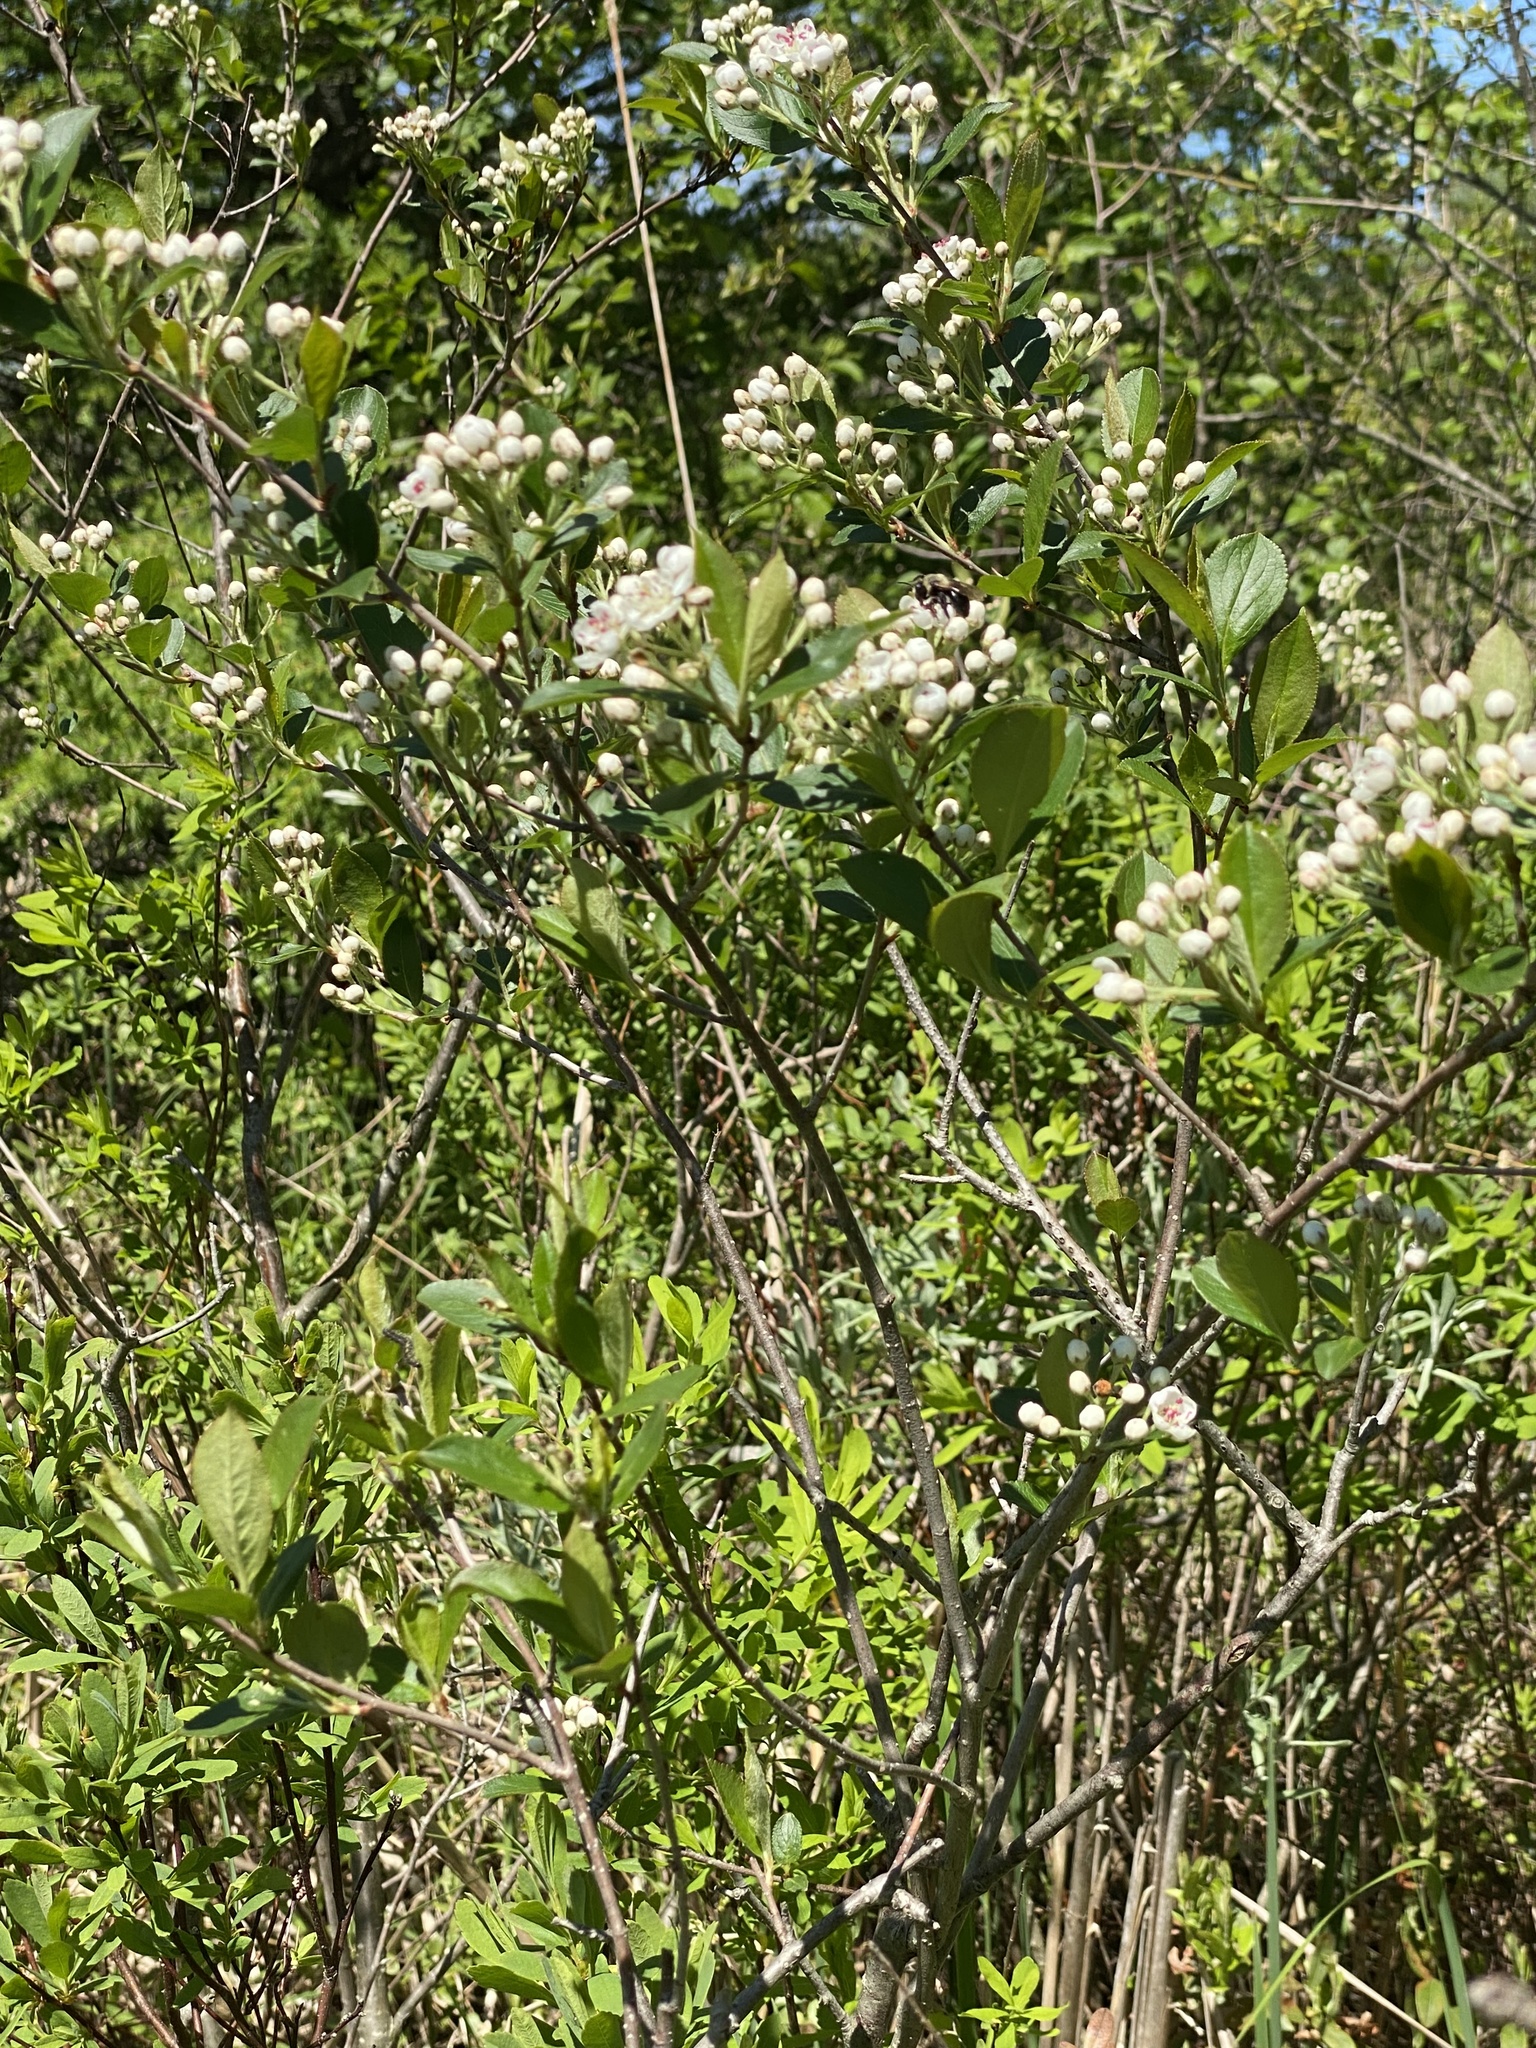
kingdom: Plantae
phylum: Tracheophyta
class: Magnoliopsida
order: Rosales
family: Rosaceae
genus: Aronia
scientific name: Aronia melanocarpa
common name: Black chokeberry
